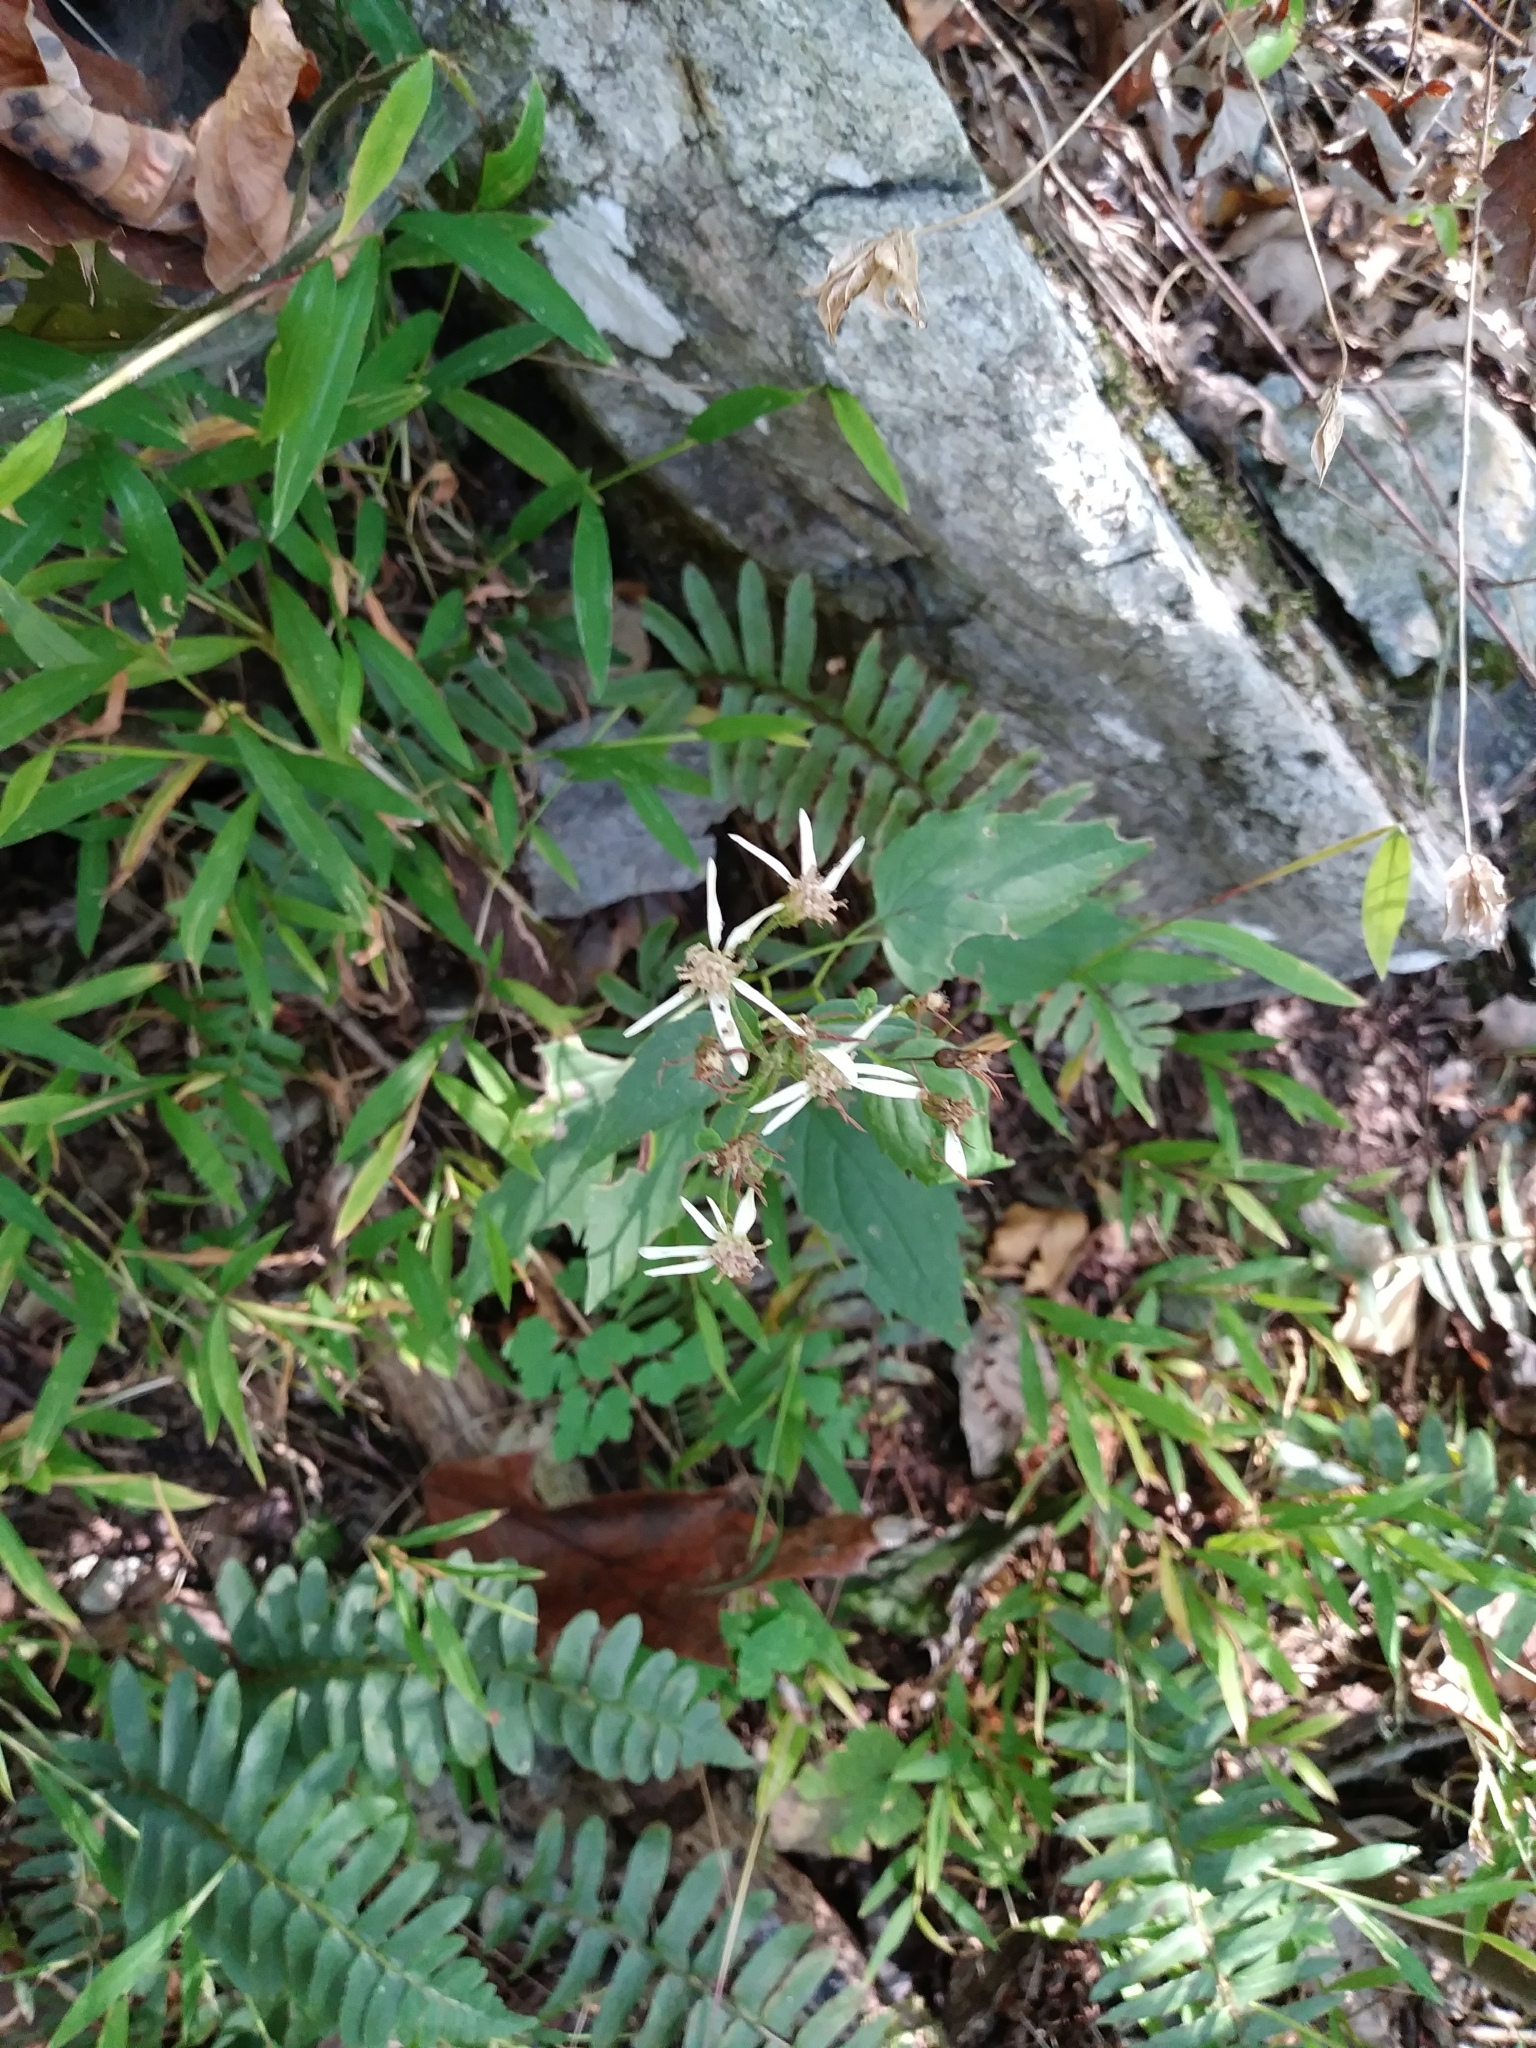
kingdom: Plantae
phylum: Tracheophyta
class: Magnoliopsida
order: Asterales
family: Asteraceae
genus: Eurybia
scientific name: Eurybia divaricata
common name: White wood aster
